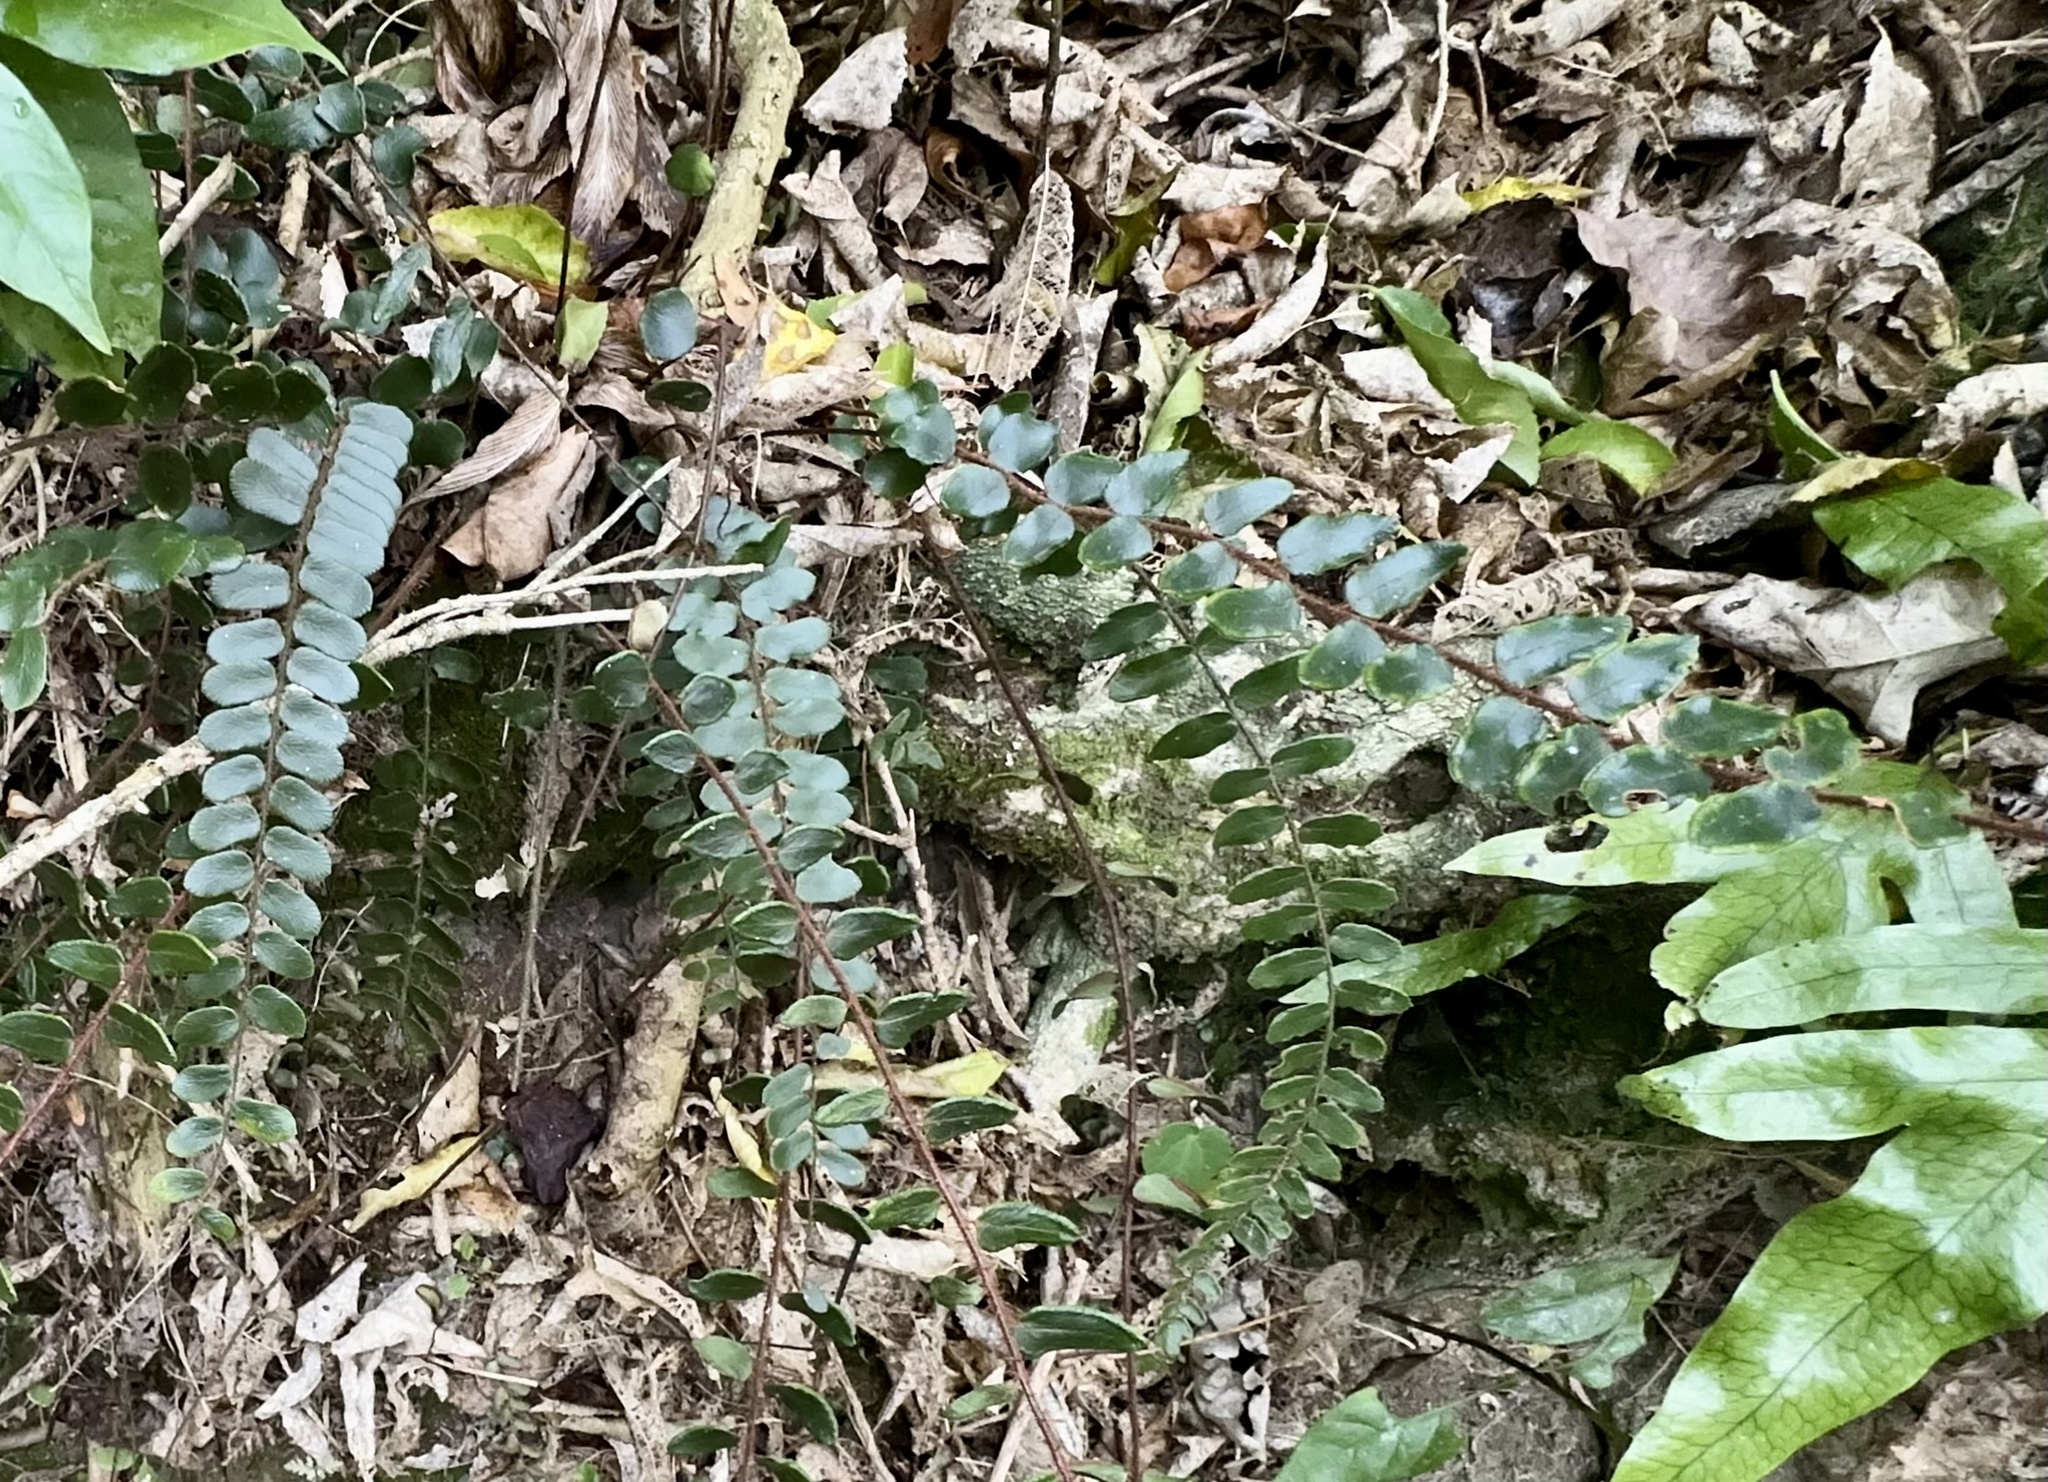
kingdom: Plantae
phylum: Tracheophyta
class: Polypodiopsida
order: Polypodiales
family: Pteridaceae
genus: Pellaea
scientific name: Pellaea rotundifolia
